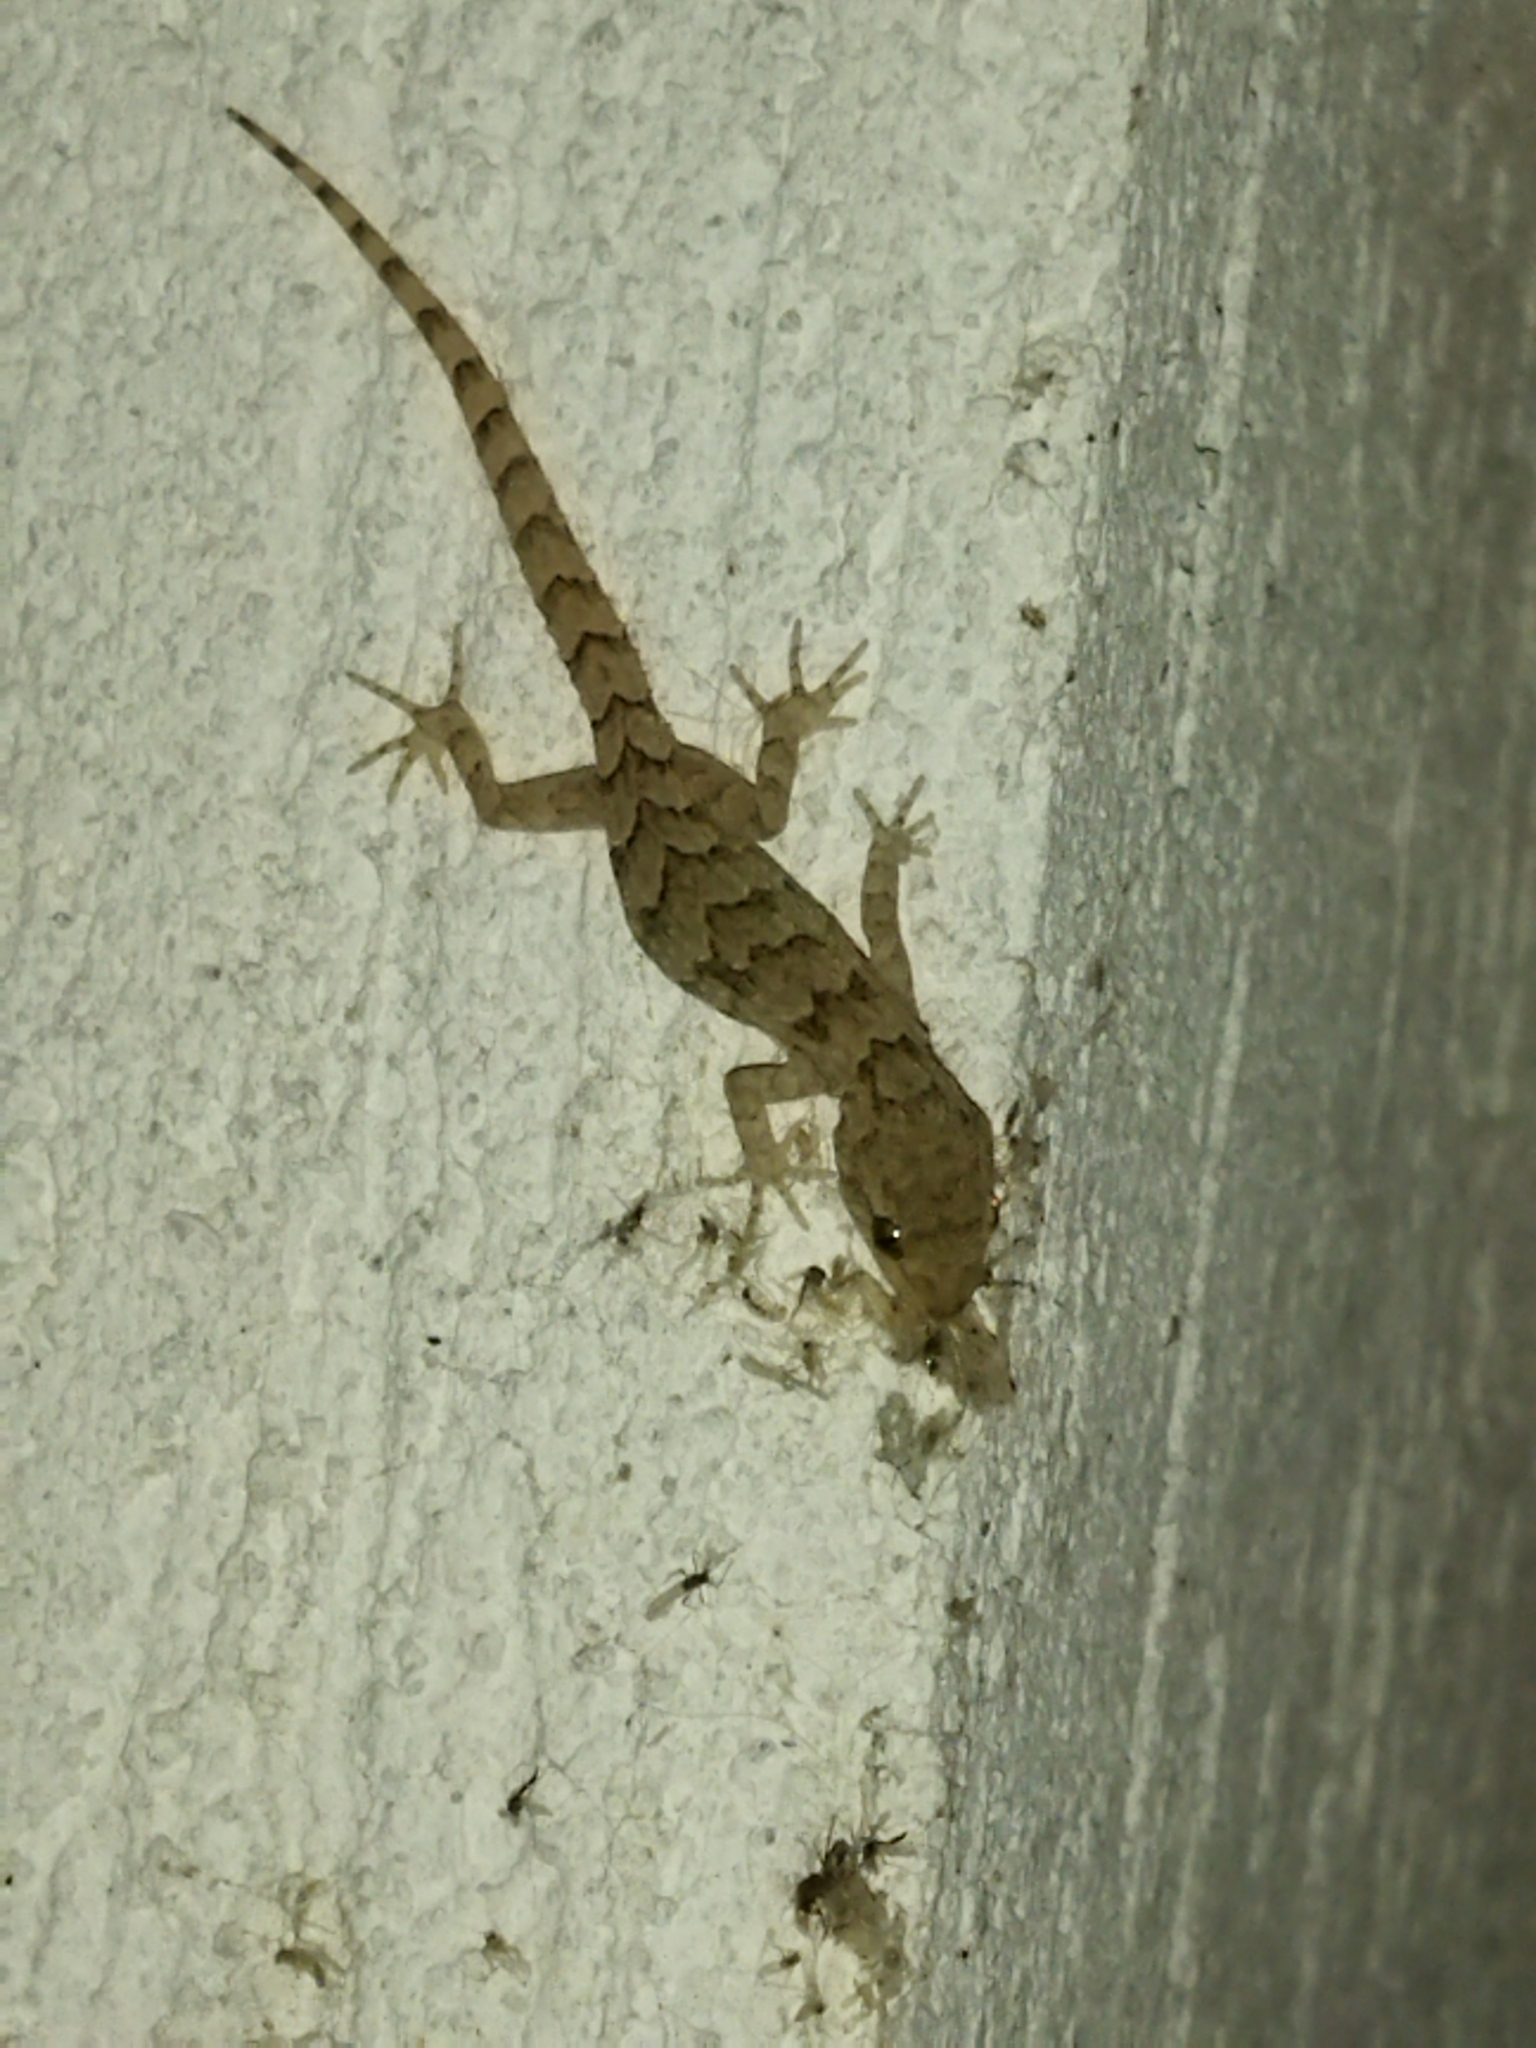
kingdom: Animalia
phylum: Chordata
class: Squamata
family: Gekkonidae
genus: Mediodactylus
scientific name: Mediodactylus kotschyi
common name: Kotschy's gecko
